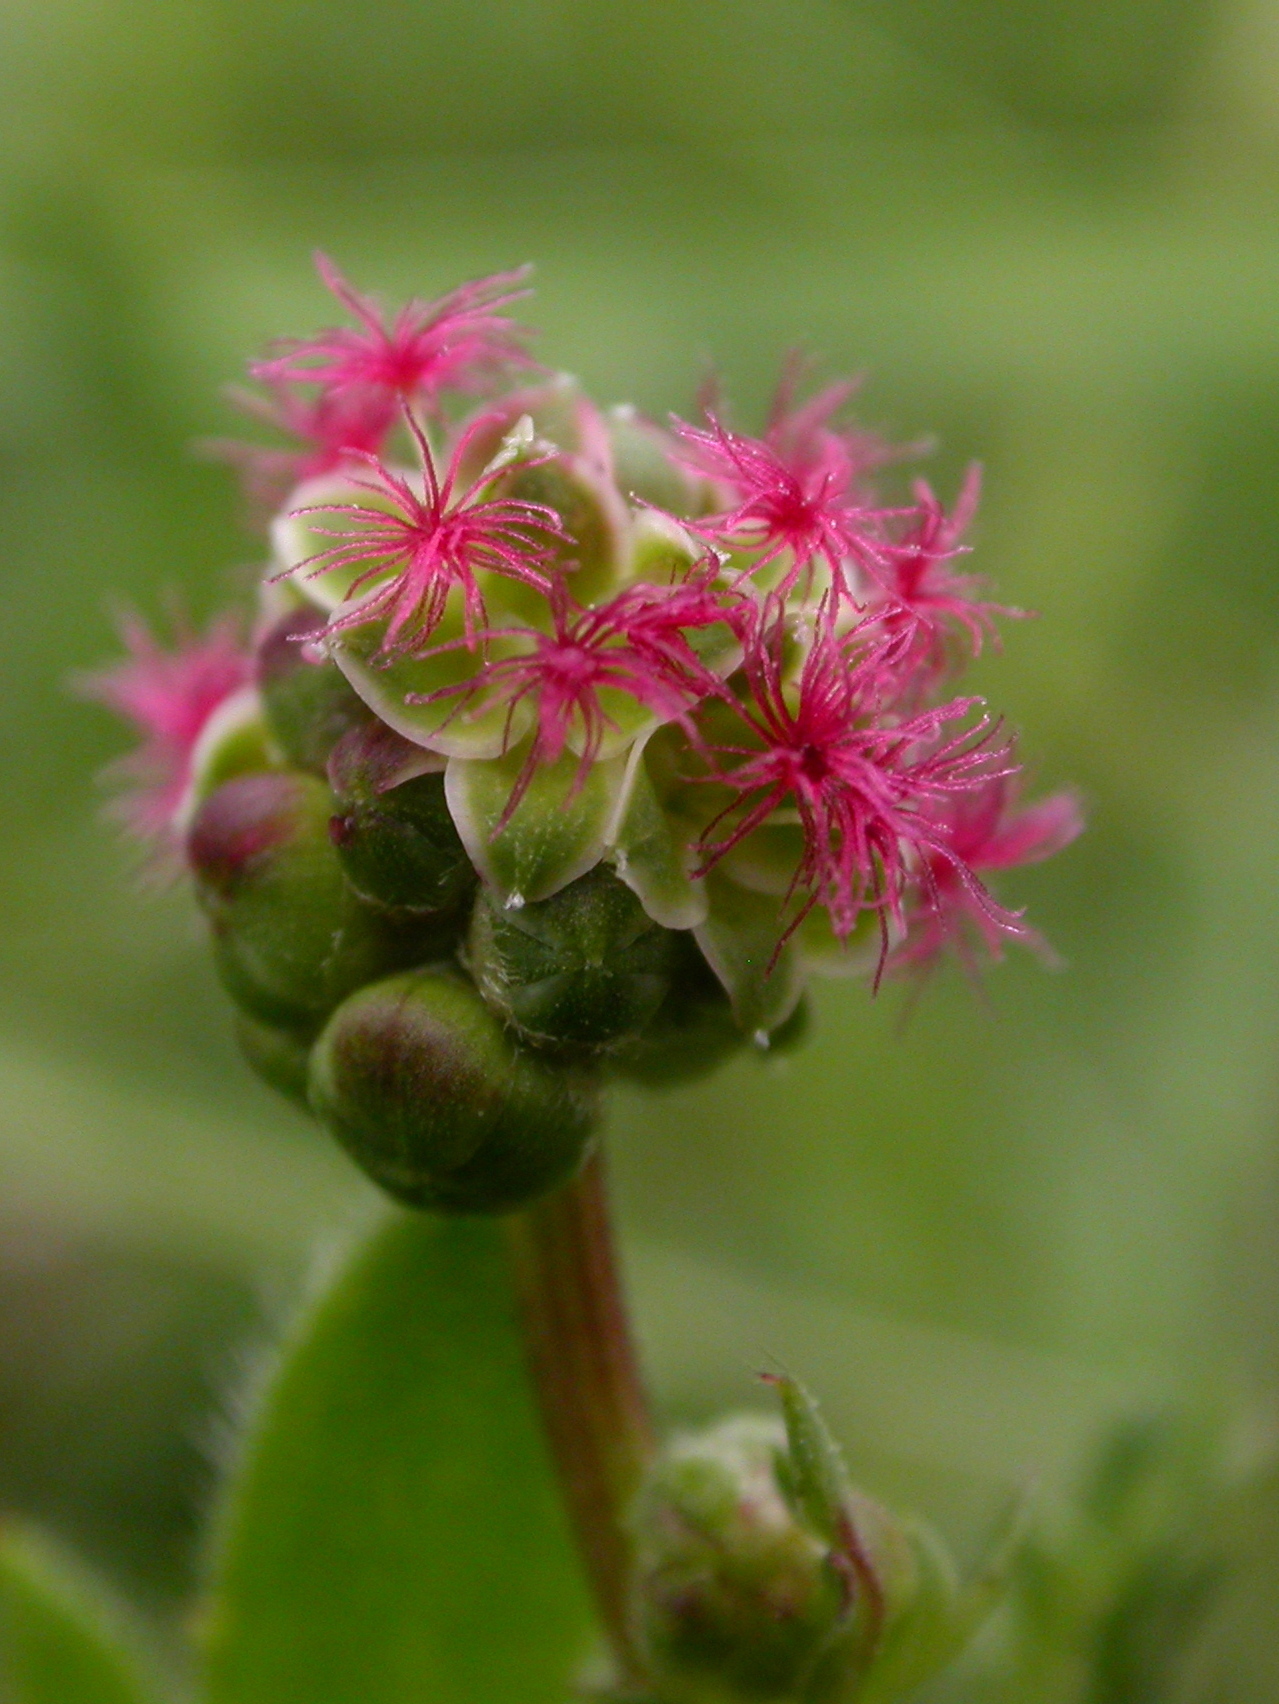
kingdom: Plantae
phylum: Tracheophyta
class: Magnoliopsida
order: Rosales
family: Rosaceae
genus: Poterium
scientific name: Poterium sanguisorba
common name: Salad burnet
